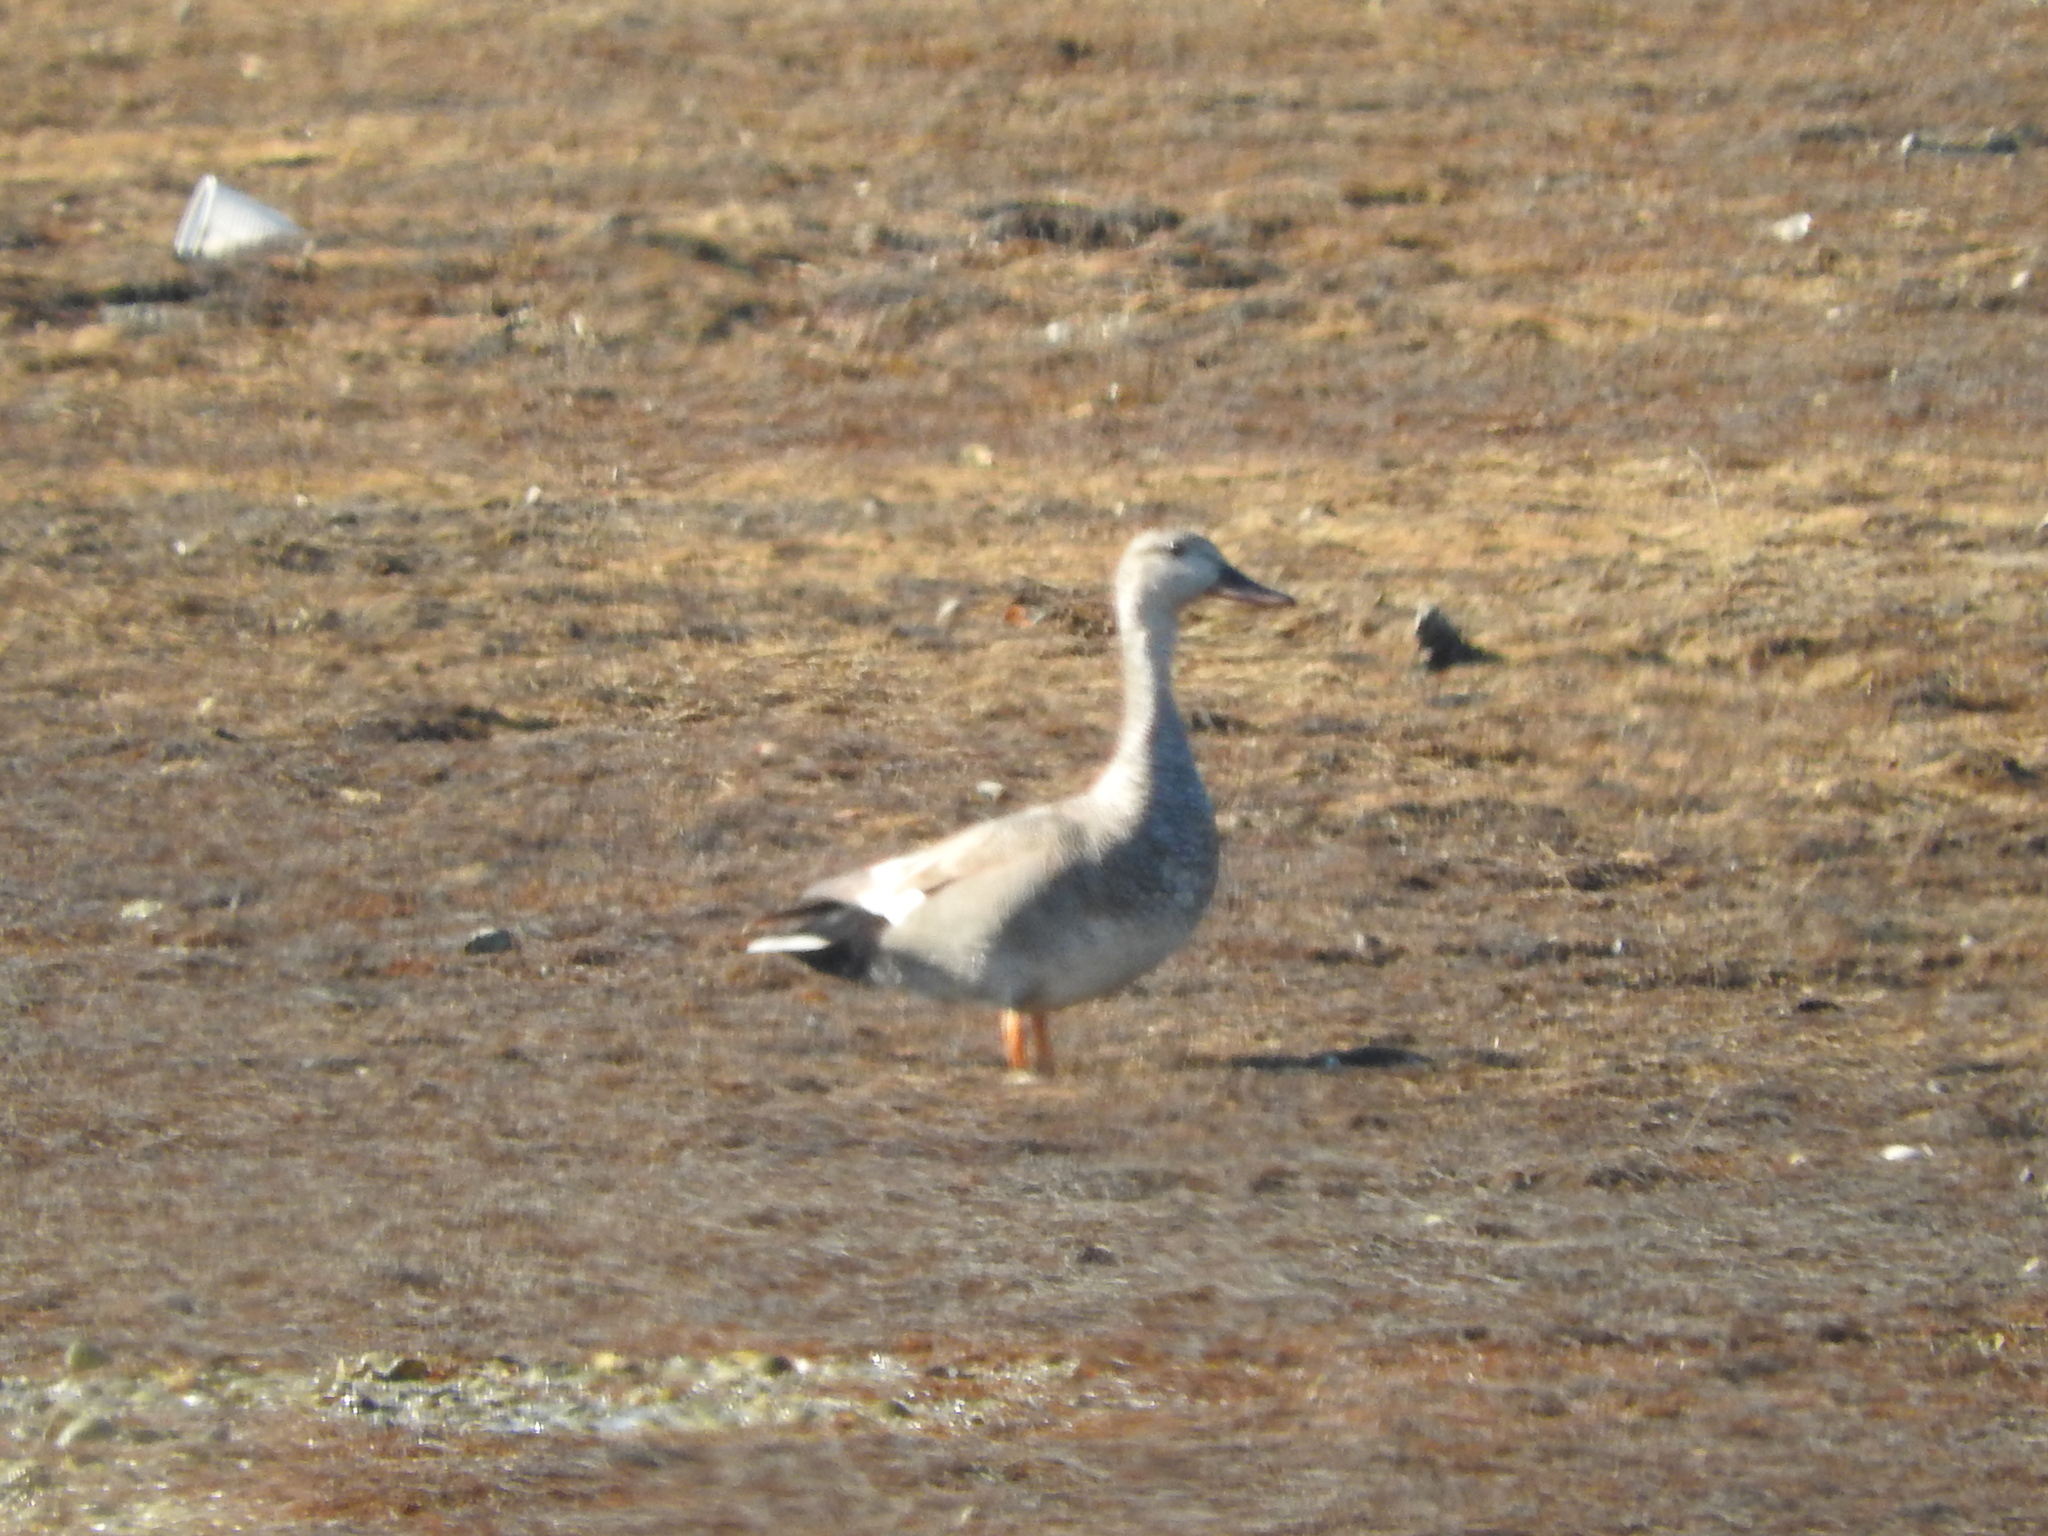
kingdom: Animalia
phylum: Chordata
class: Aves
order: Anseriformes
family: Anatidae
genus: Mareca
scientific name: Mareca strepera
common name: Gadwall
